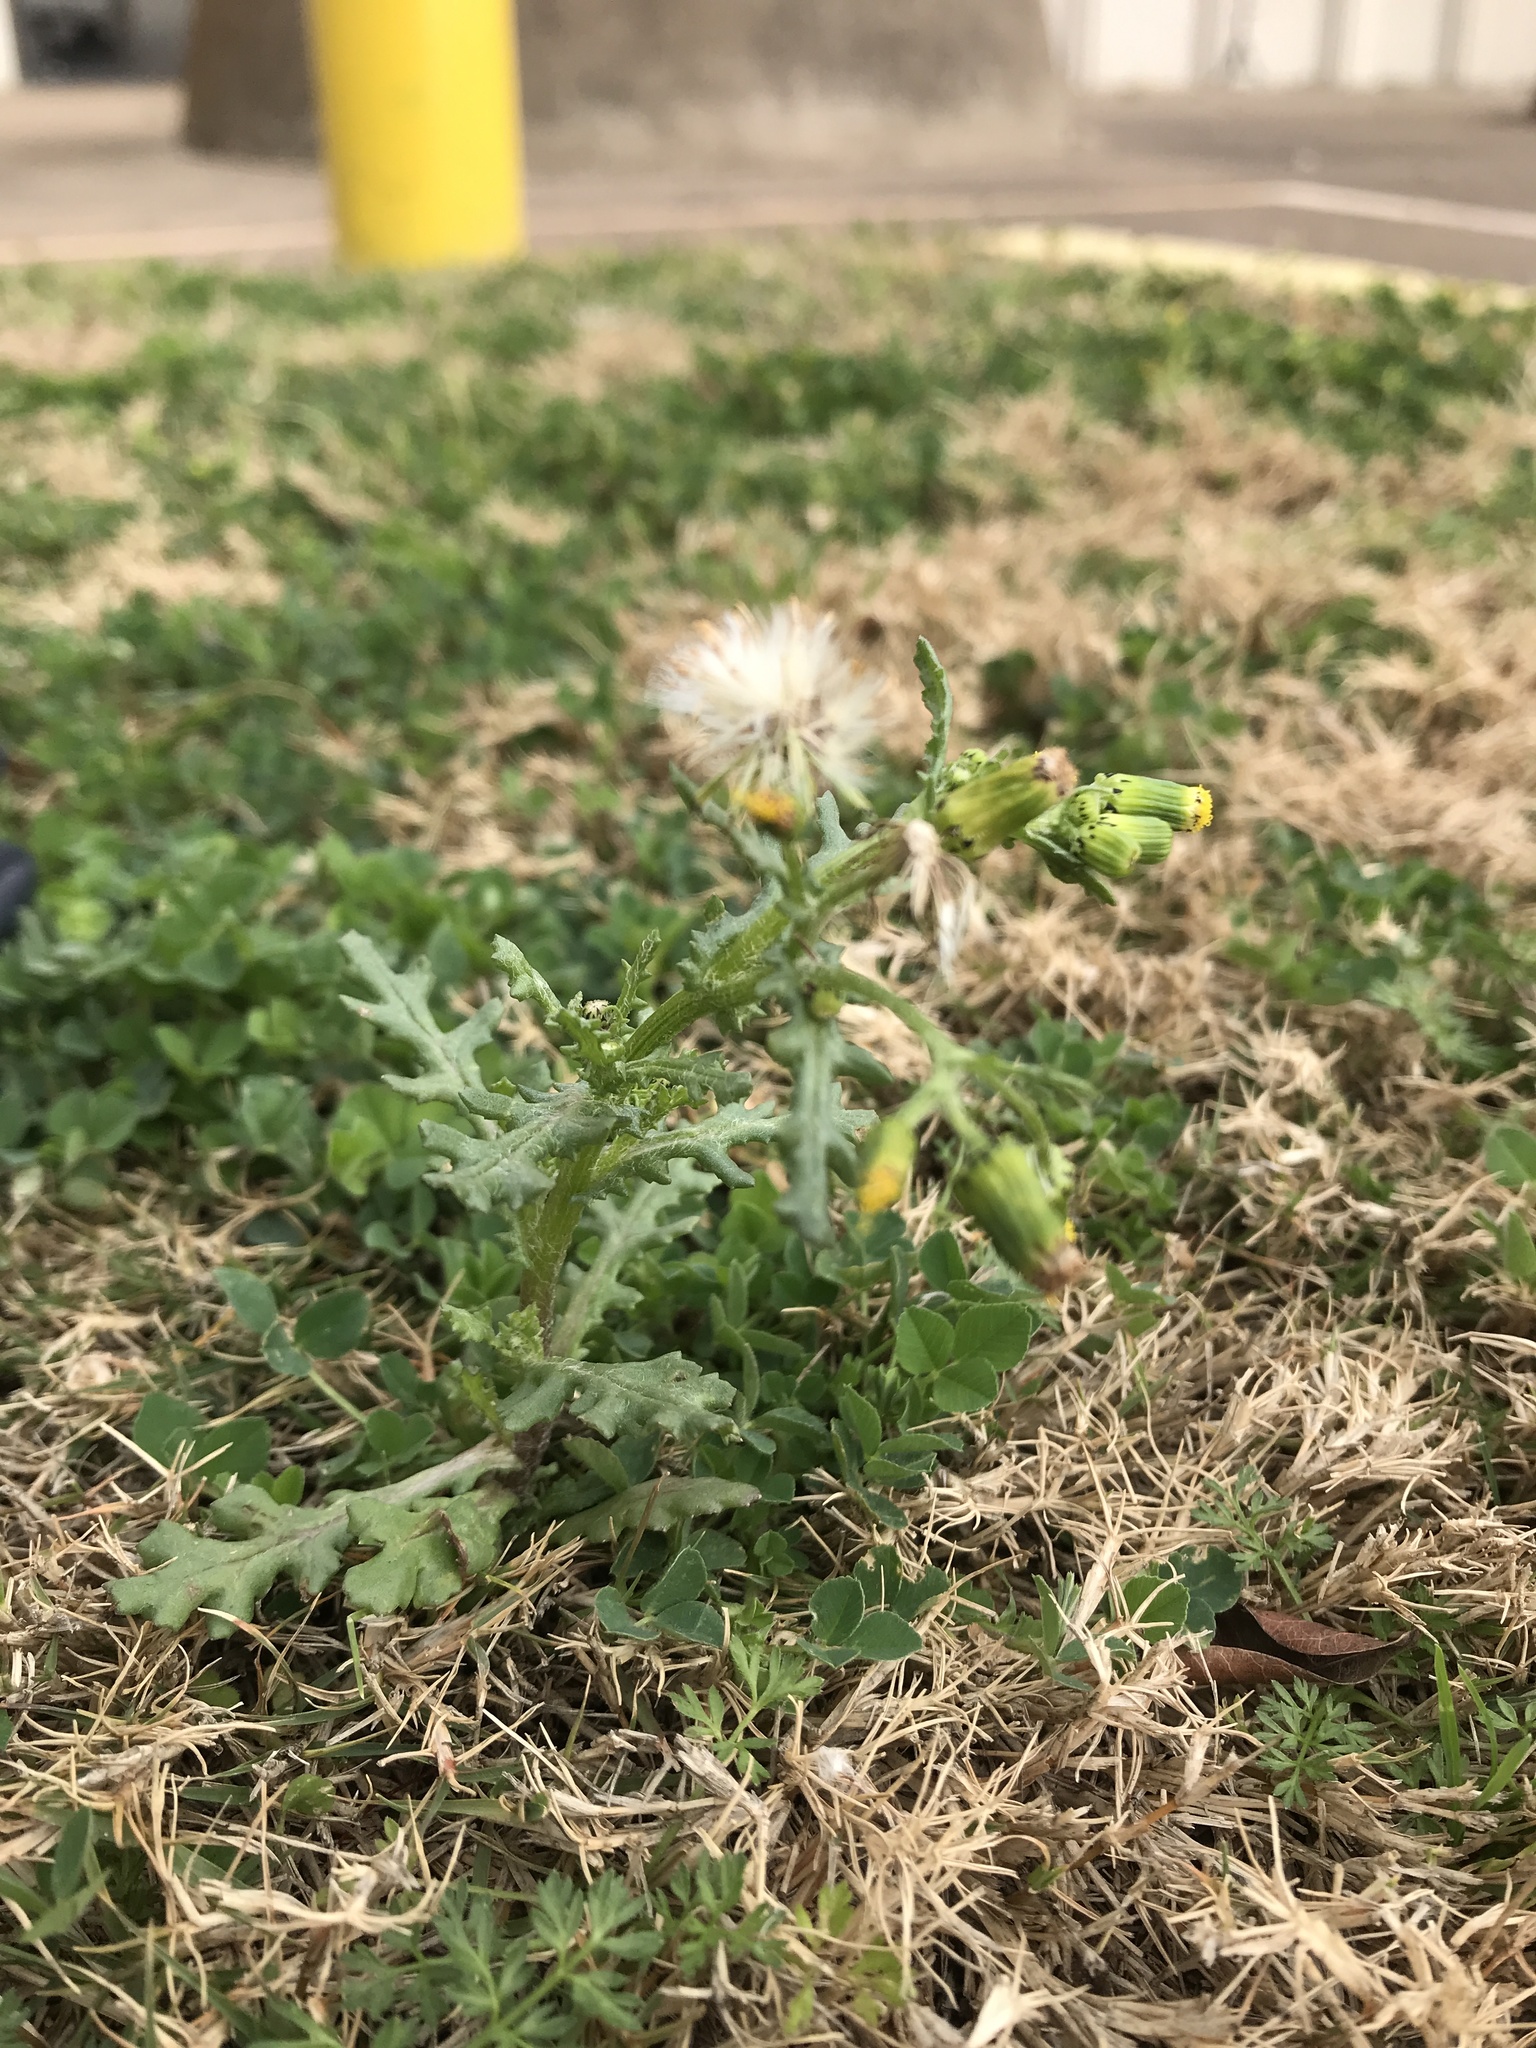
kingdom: Plantae
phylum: Tracheophyta
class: Magnoliopsida
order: Asterales
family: Asteraceae
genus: Senecio
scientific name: Senecio vulgaris
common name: Old-man-in-the-spring
